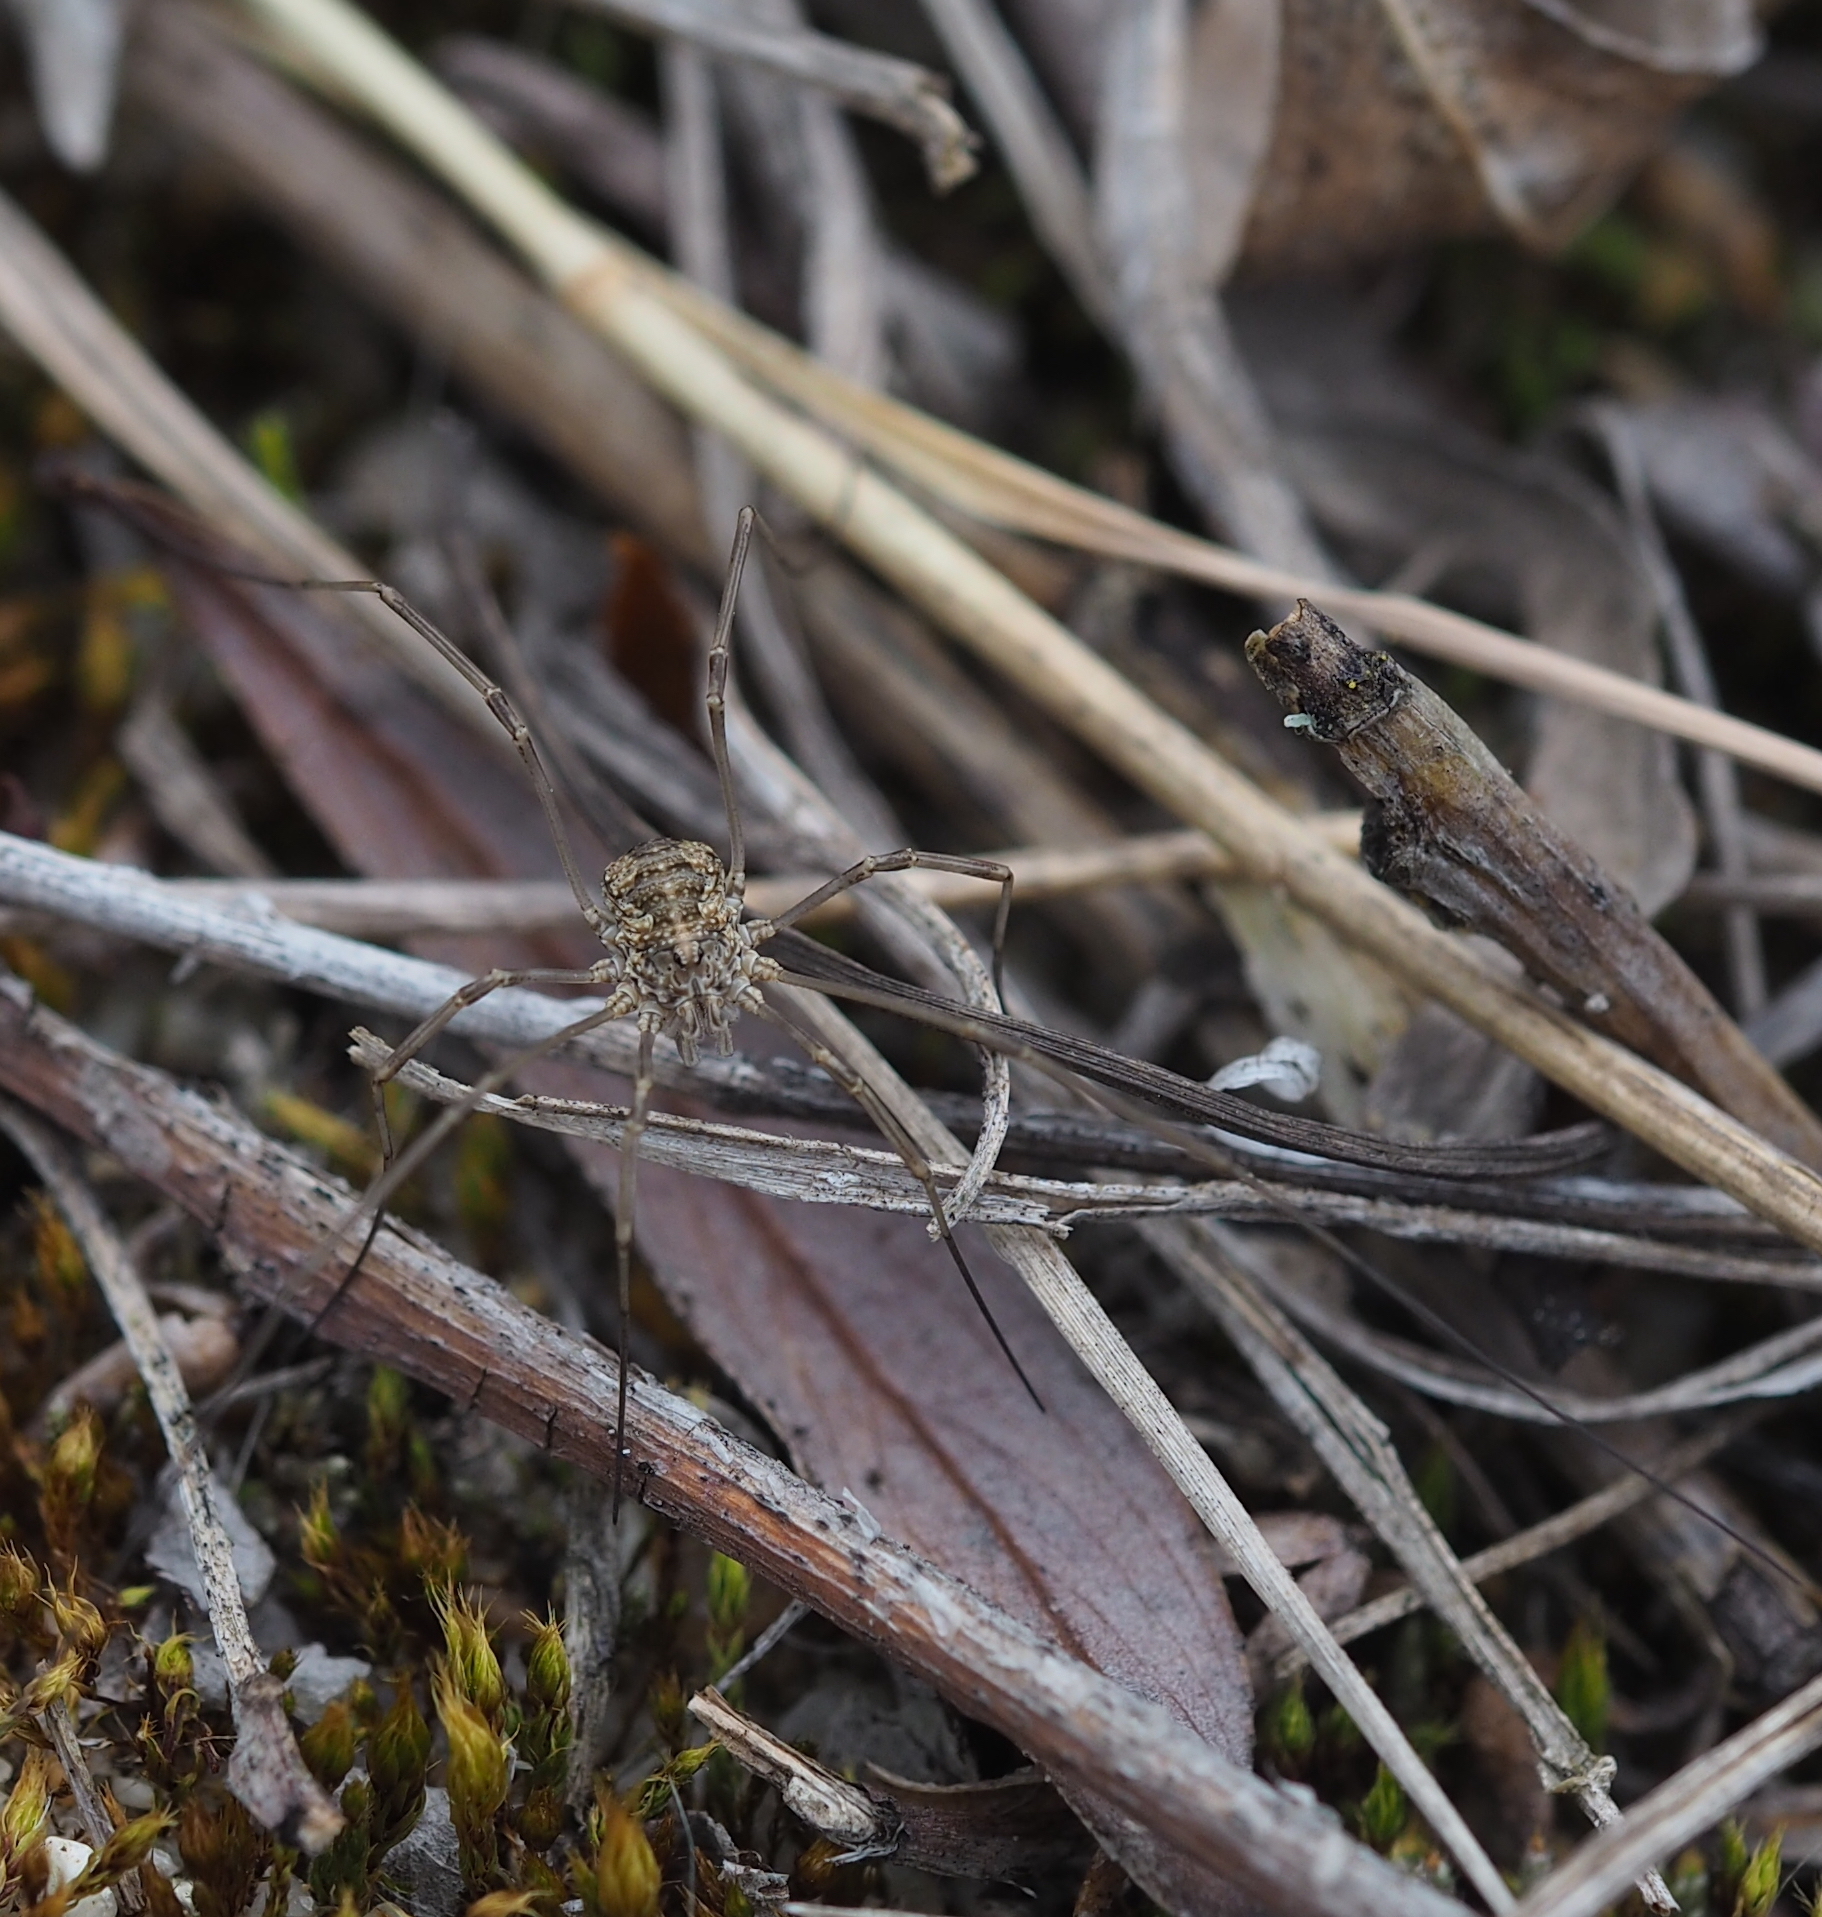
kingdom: Animalia
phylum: Arthropoda
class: Arachnida
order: Opiliones
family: Phalangiidae
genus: Phalangium
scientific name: Phalangium opilio
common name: Daddy longleg
